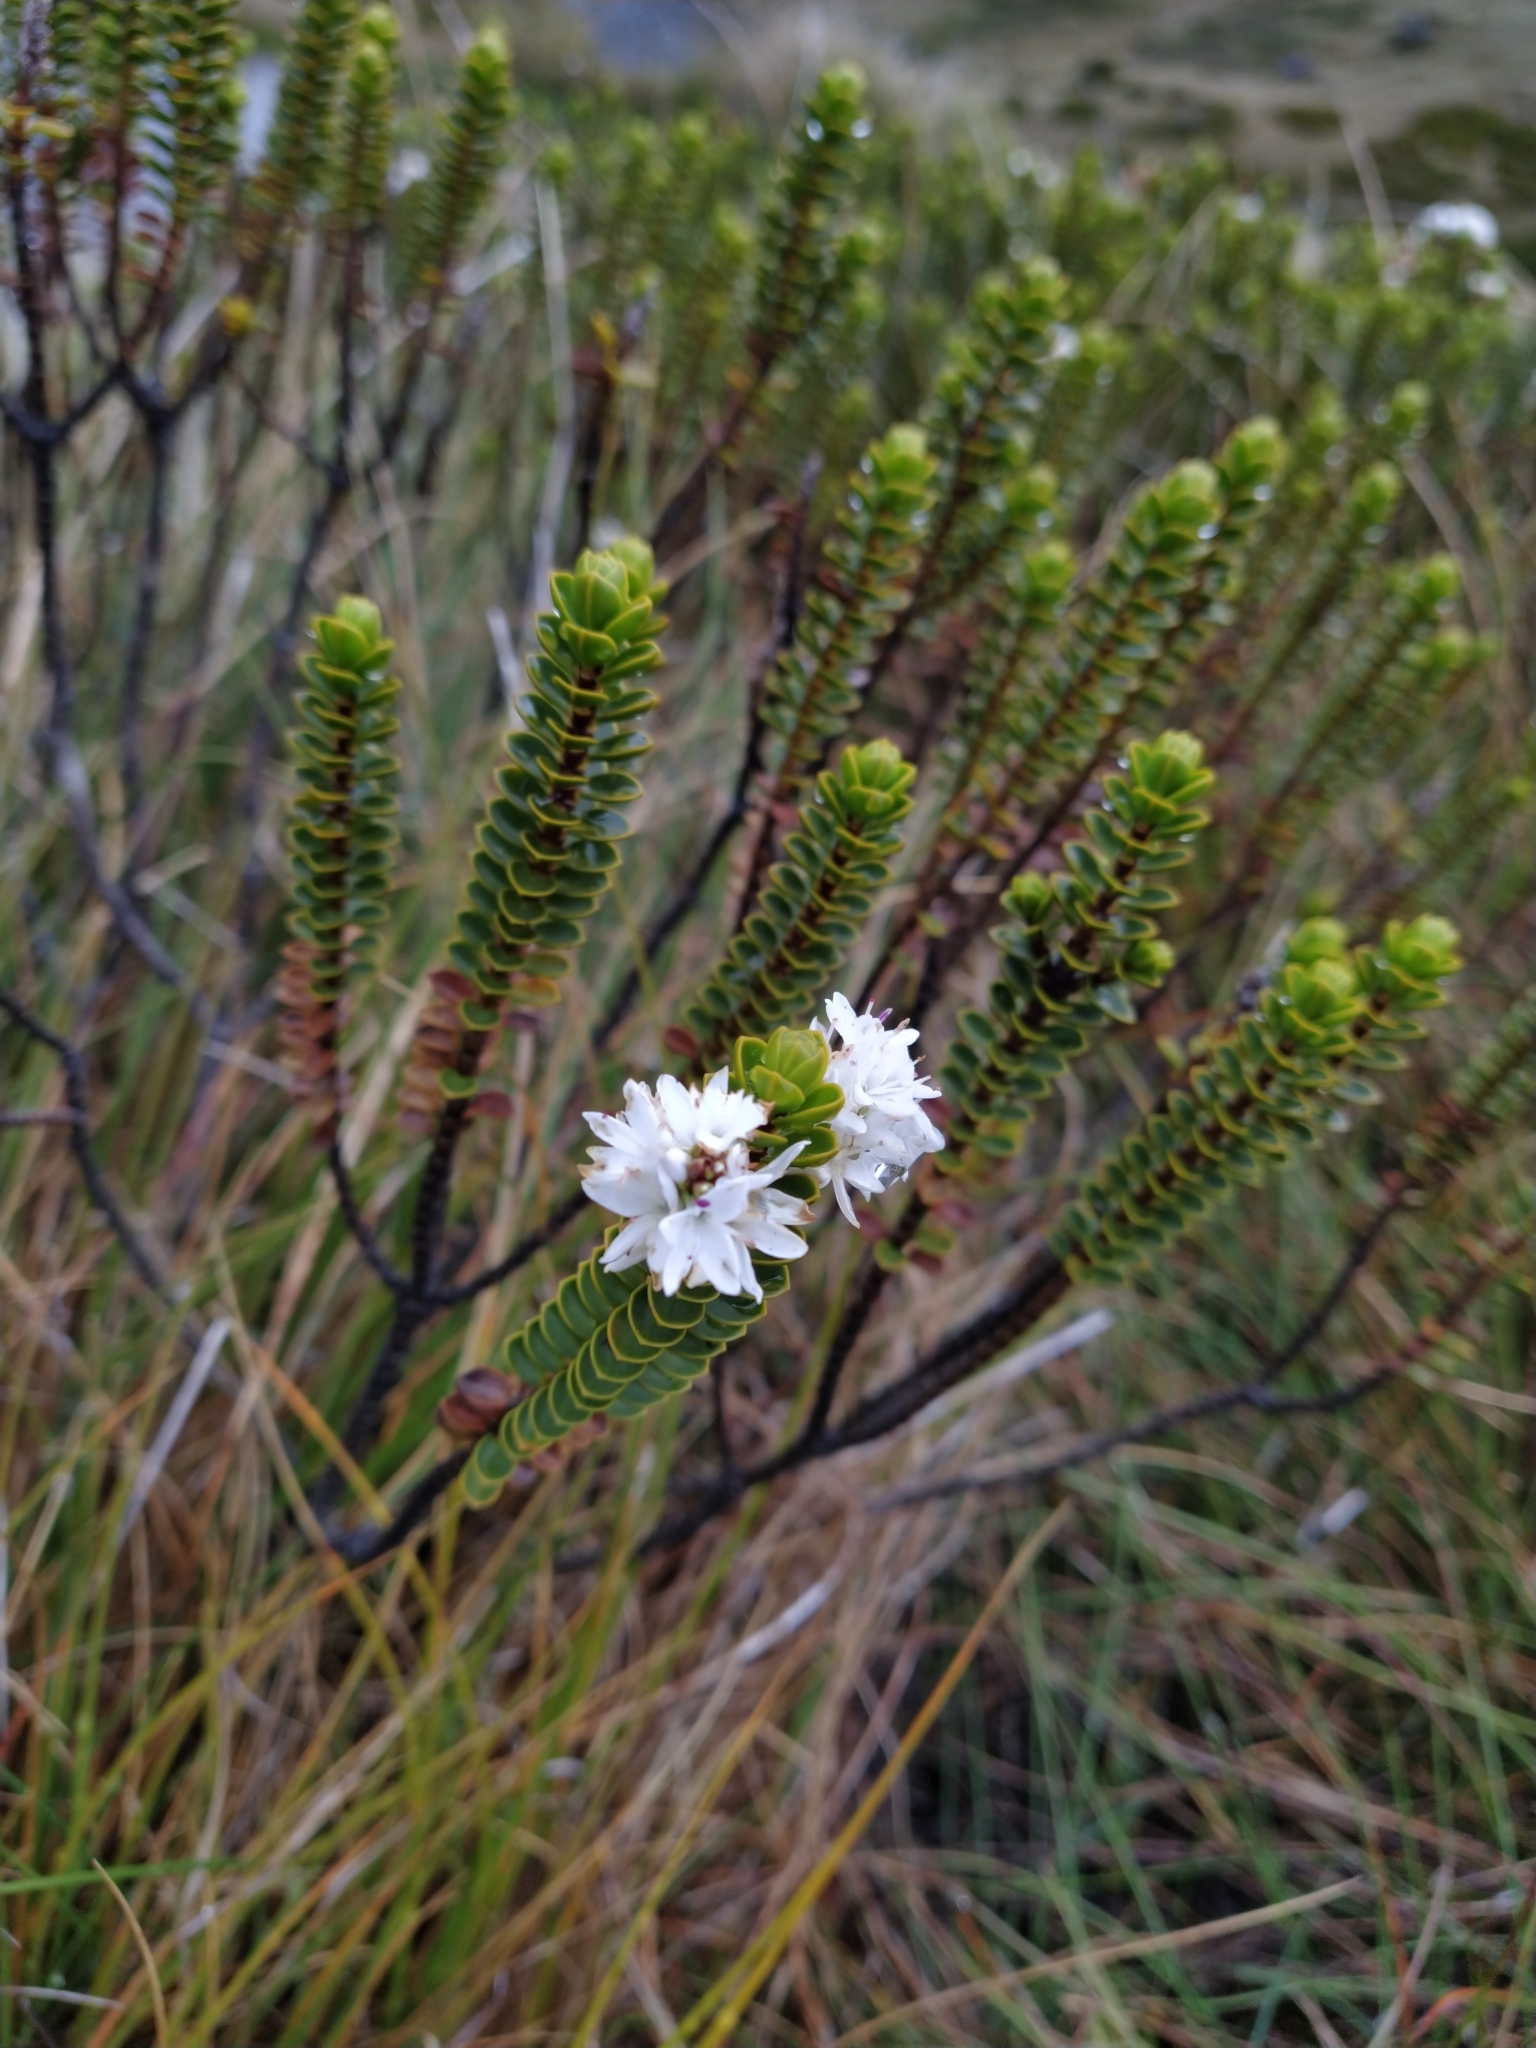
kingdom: Plantae
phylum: Tracheophyta
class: Magnoliopsida
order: Lamiales
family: Plantaginaceae
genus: Veronica
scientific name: Veronica pauciramosa
